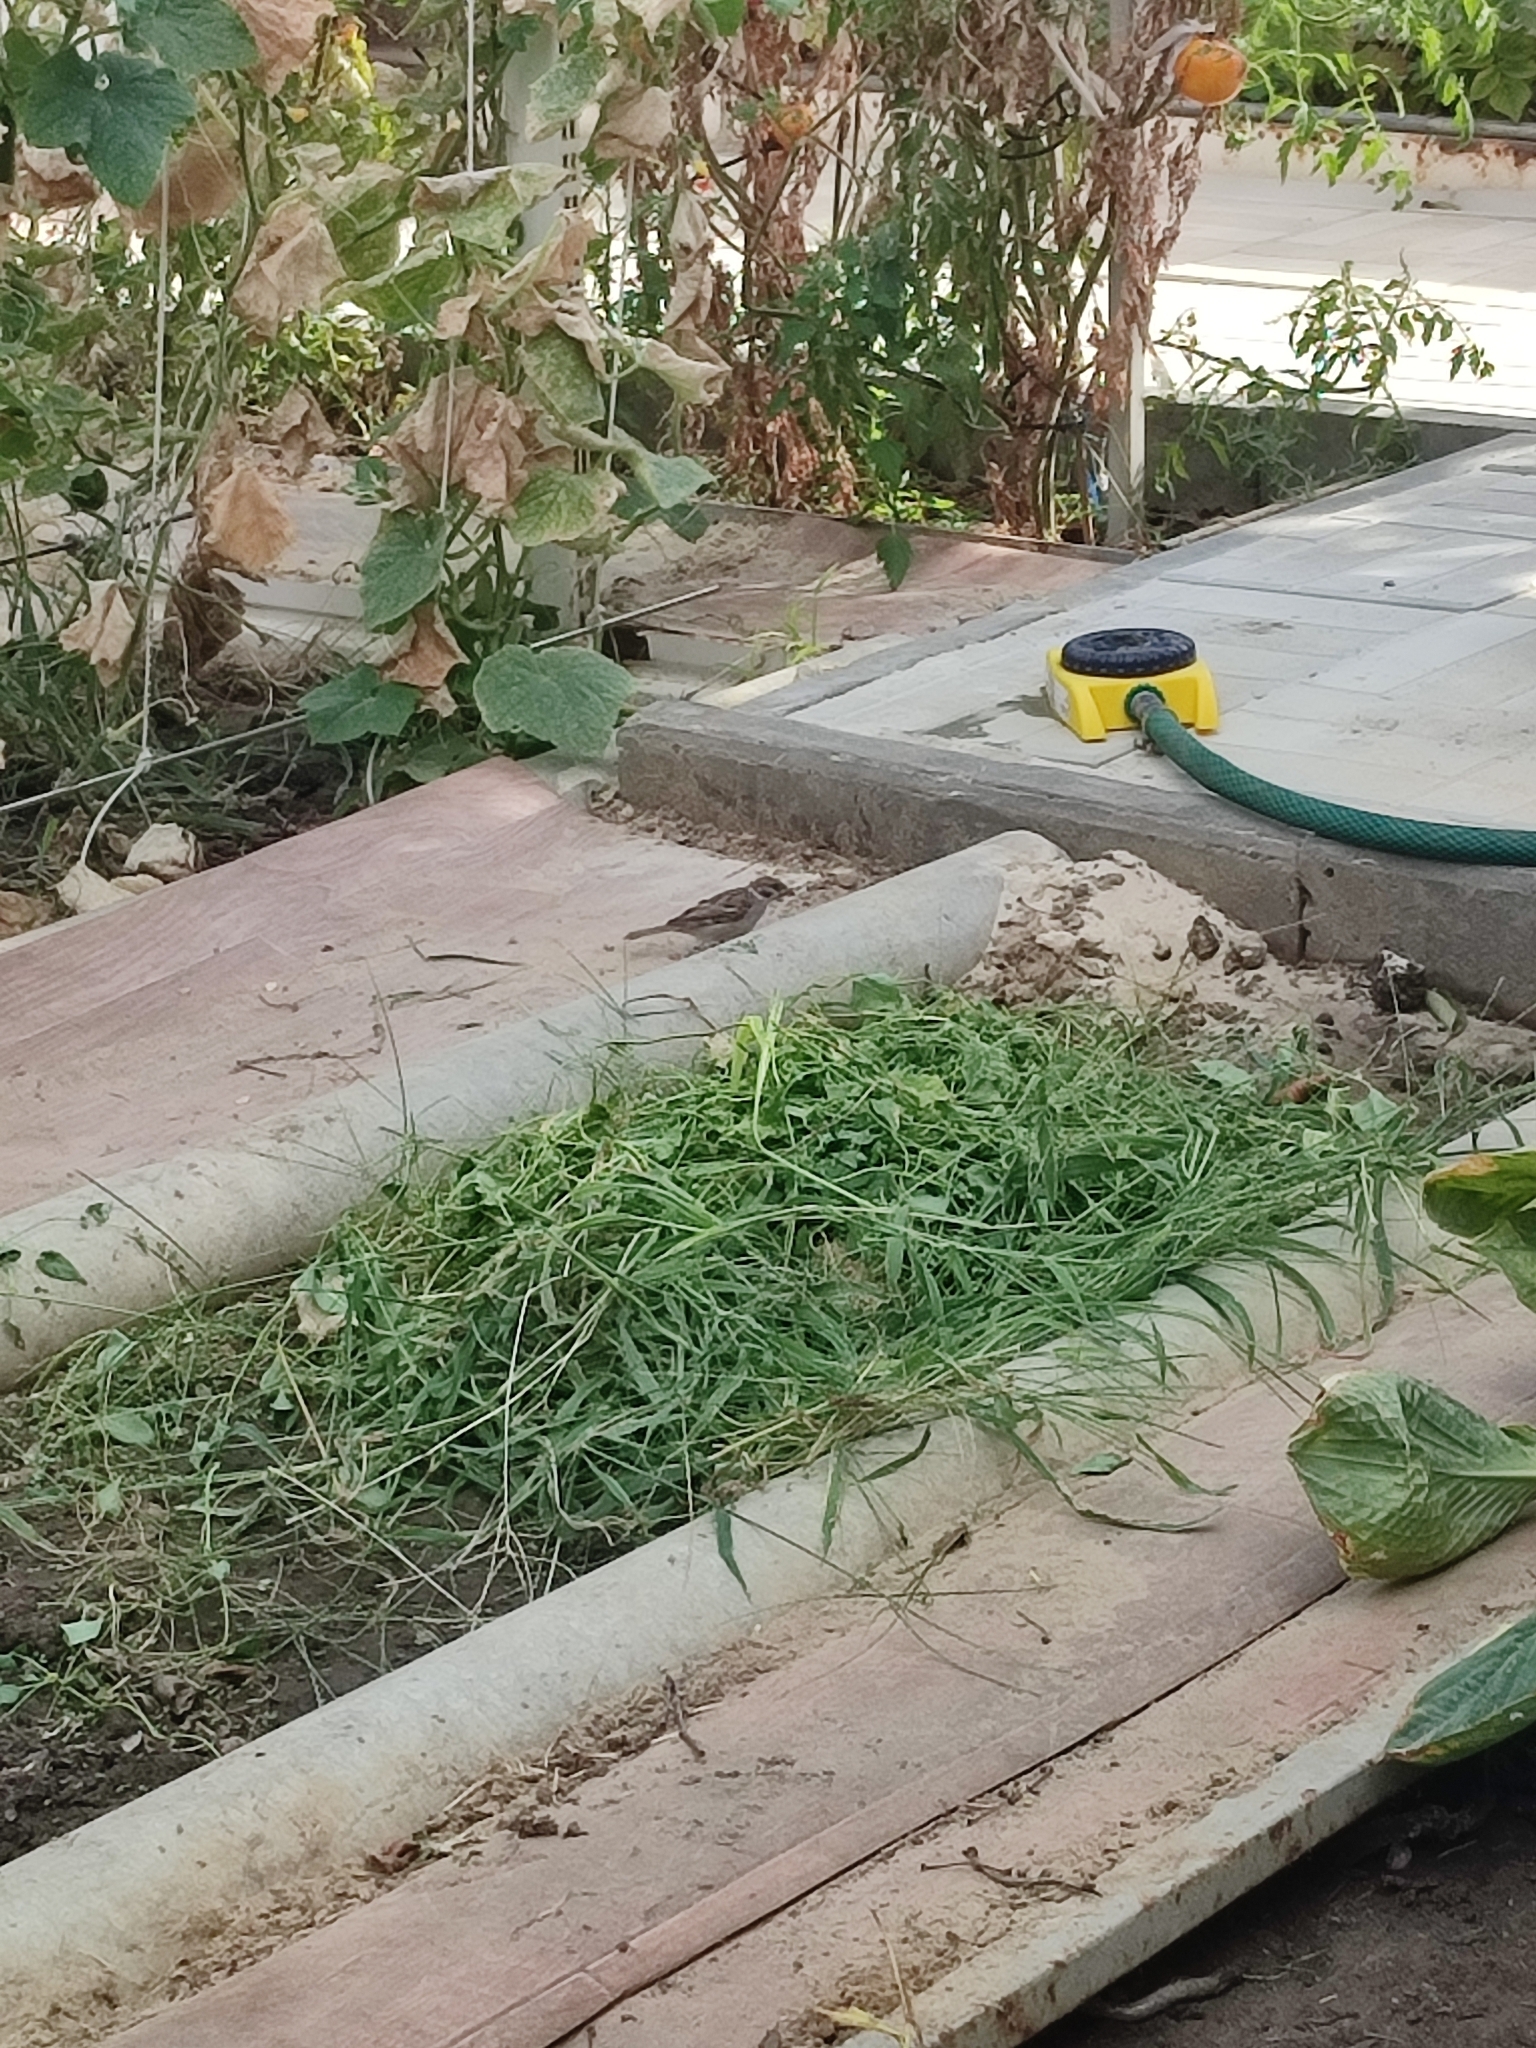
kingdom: Animalia
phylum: Chordata
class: Aves
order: Passeriformes
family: Passeridae
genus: Passer
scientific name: Passer montanus
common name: Eurasian tree sparrow
